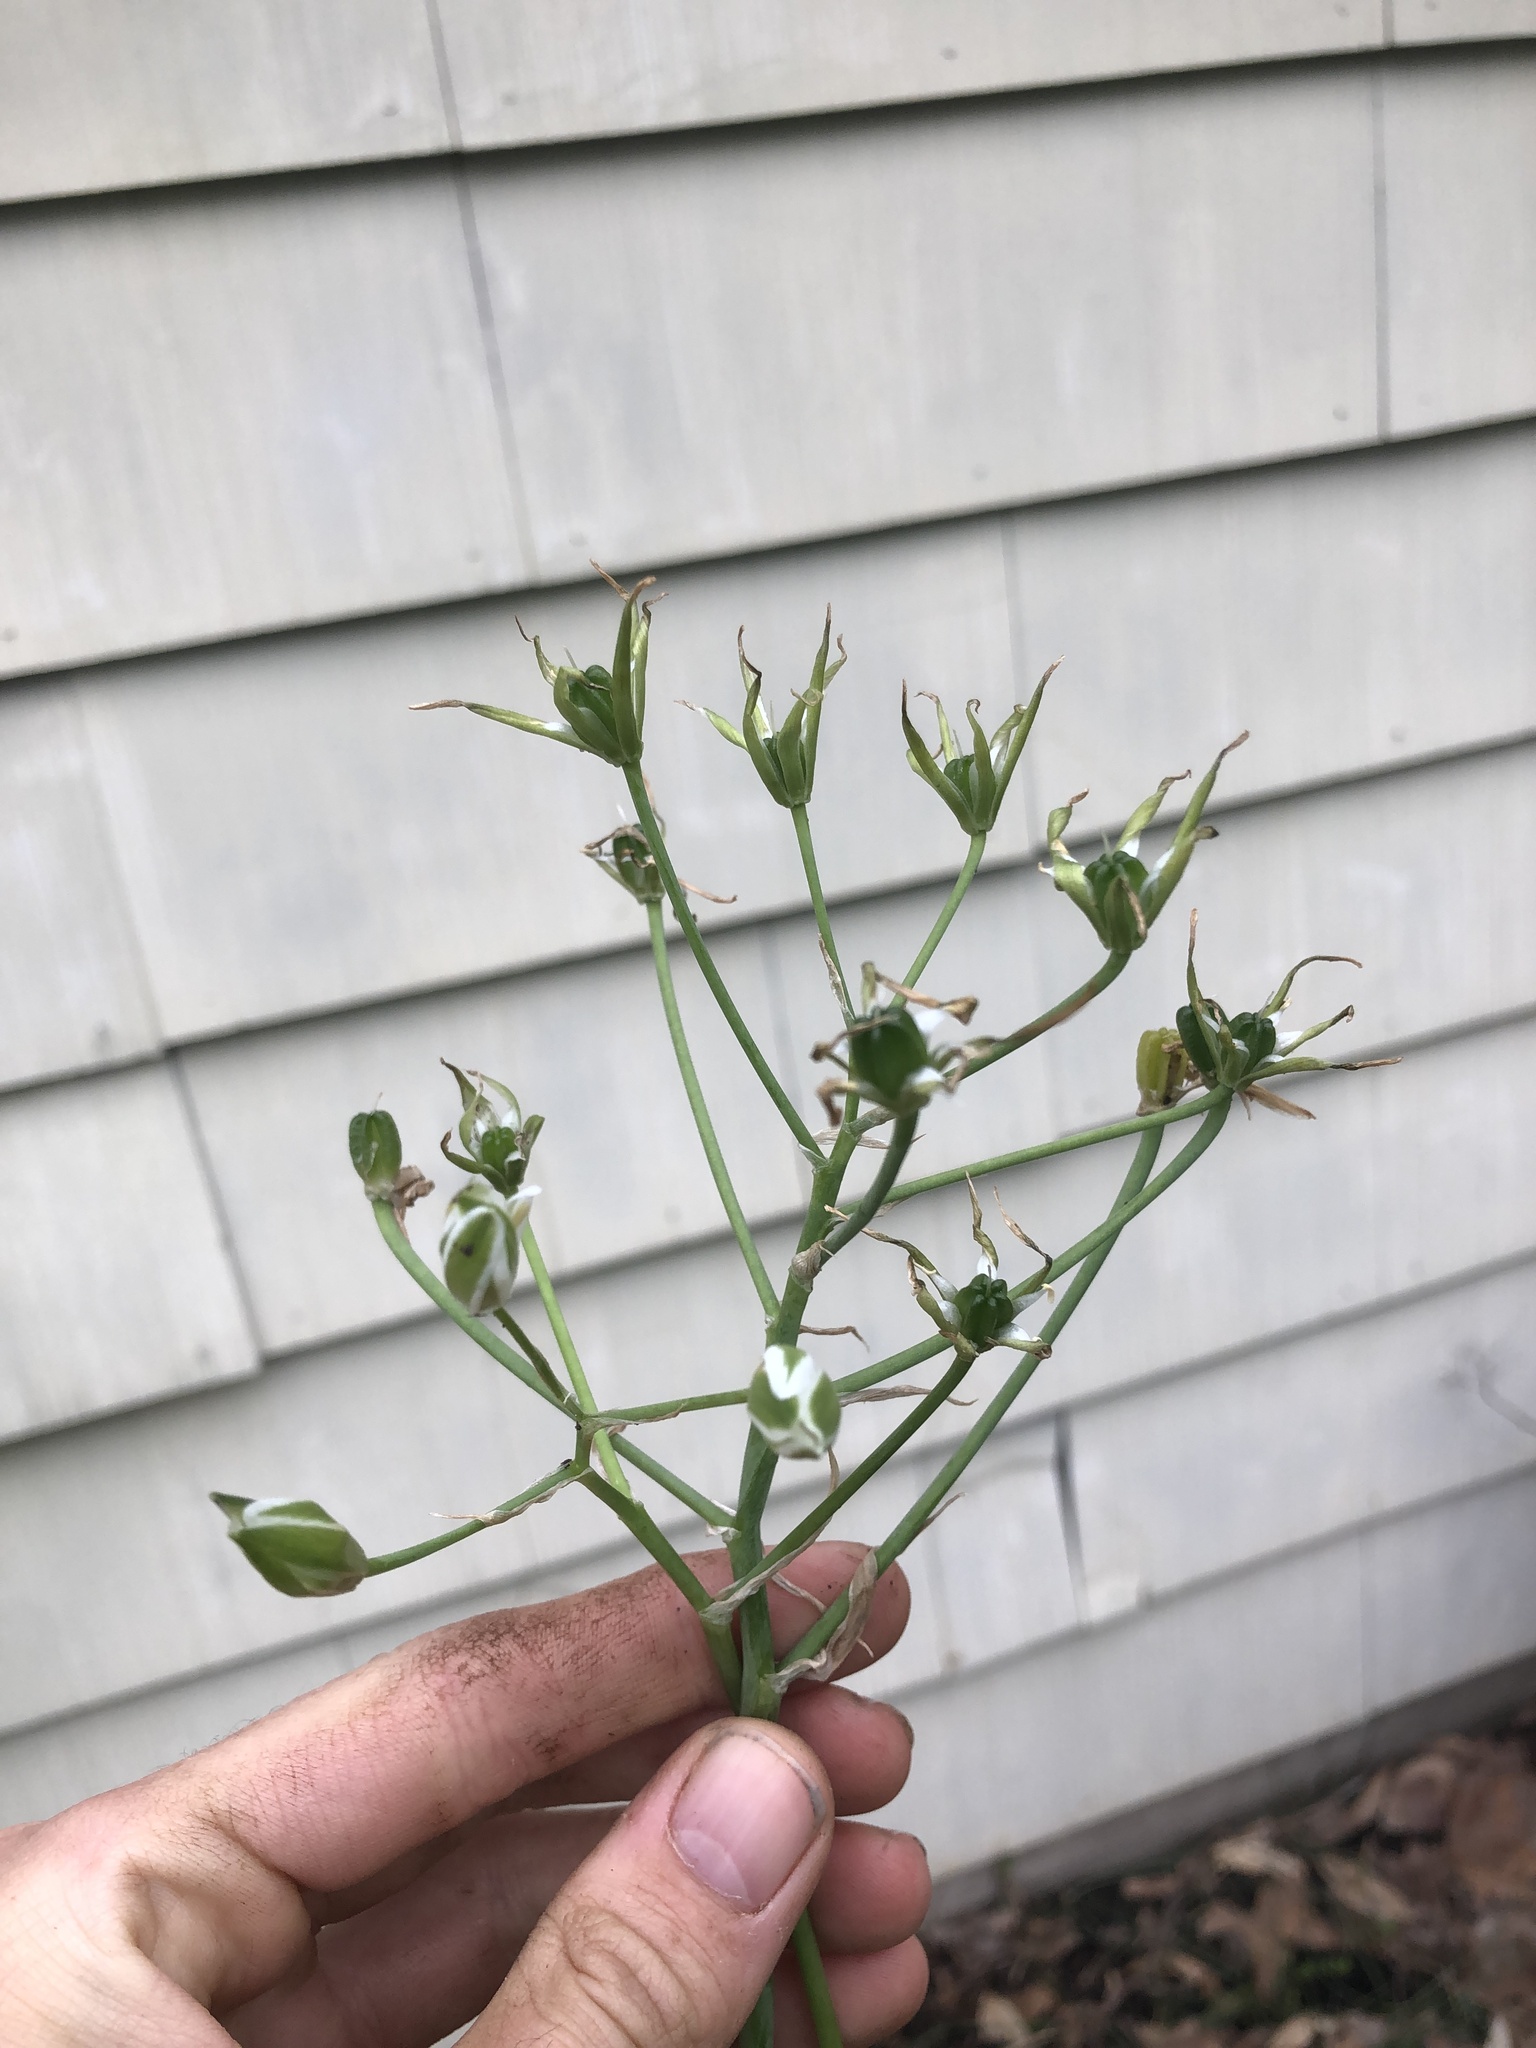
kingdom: Plantae
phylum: Tracheophyta
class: Liliopsida
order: Asparagales
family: Asparagaceae
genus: Ornithogalum
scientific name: Ornithogalum umbellatum
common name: Garden star-of-bethlehem
